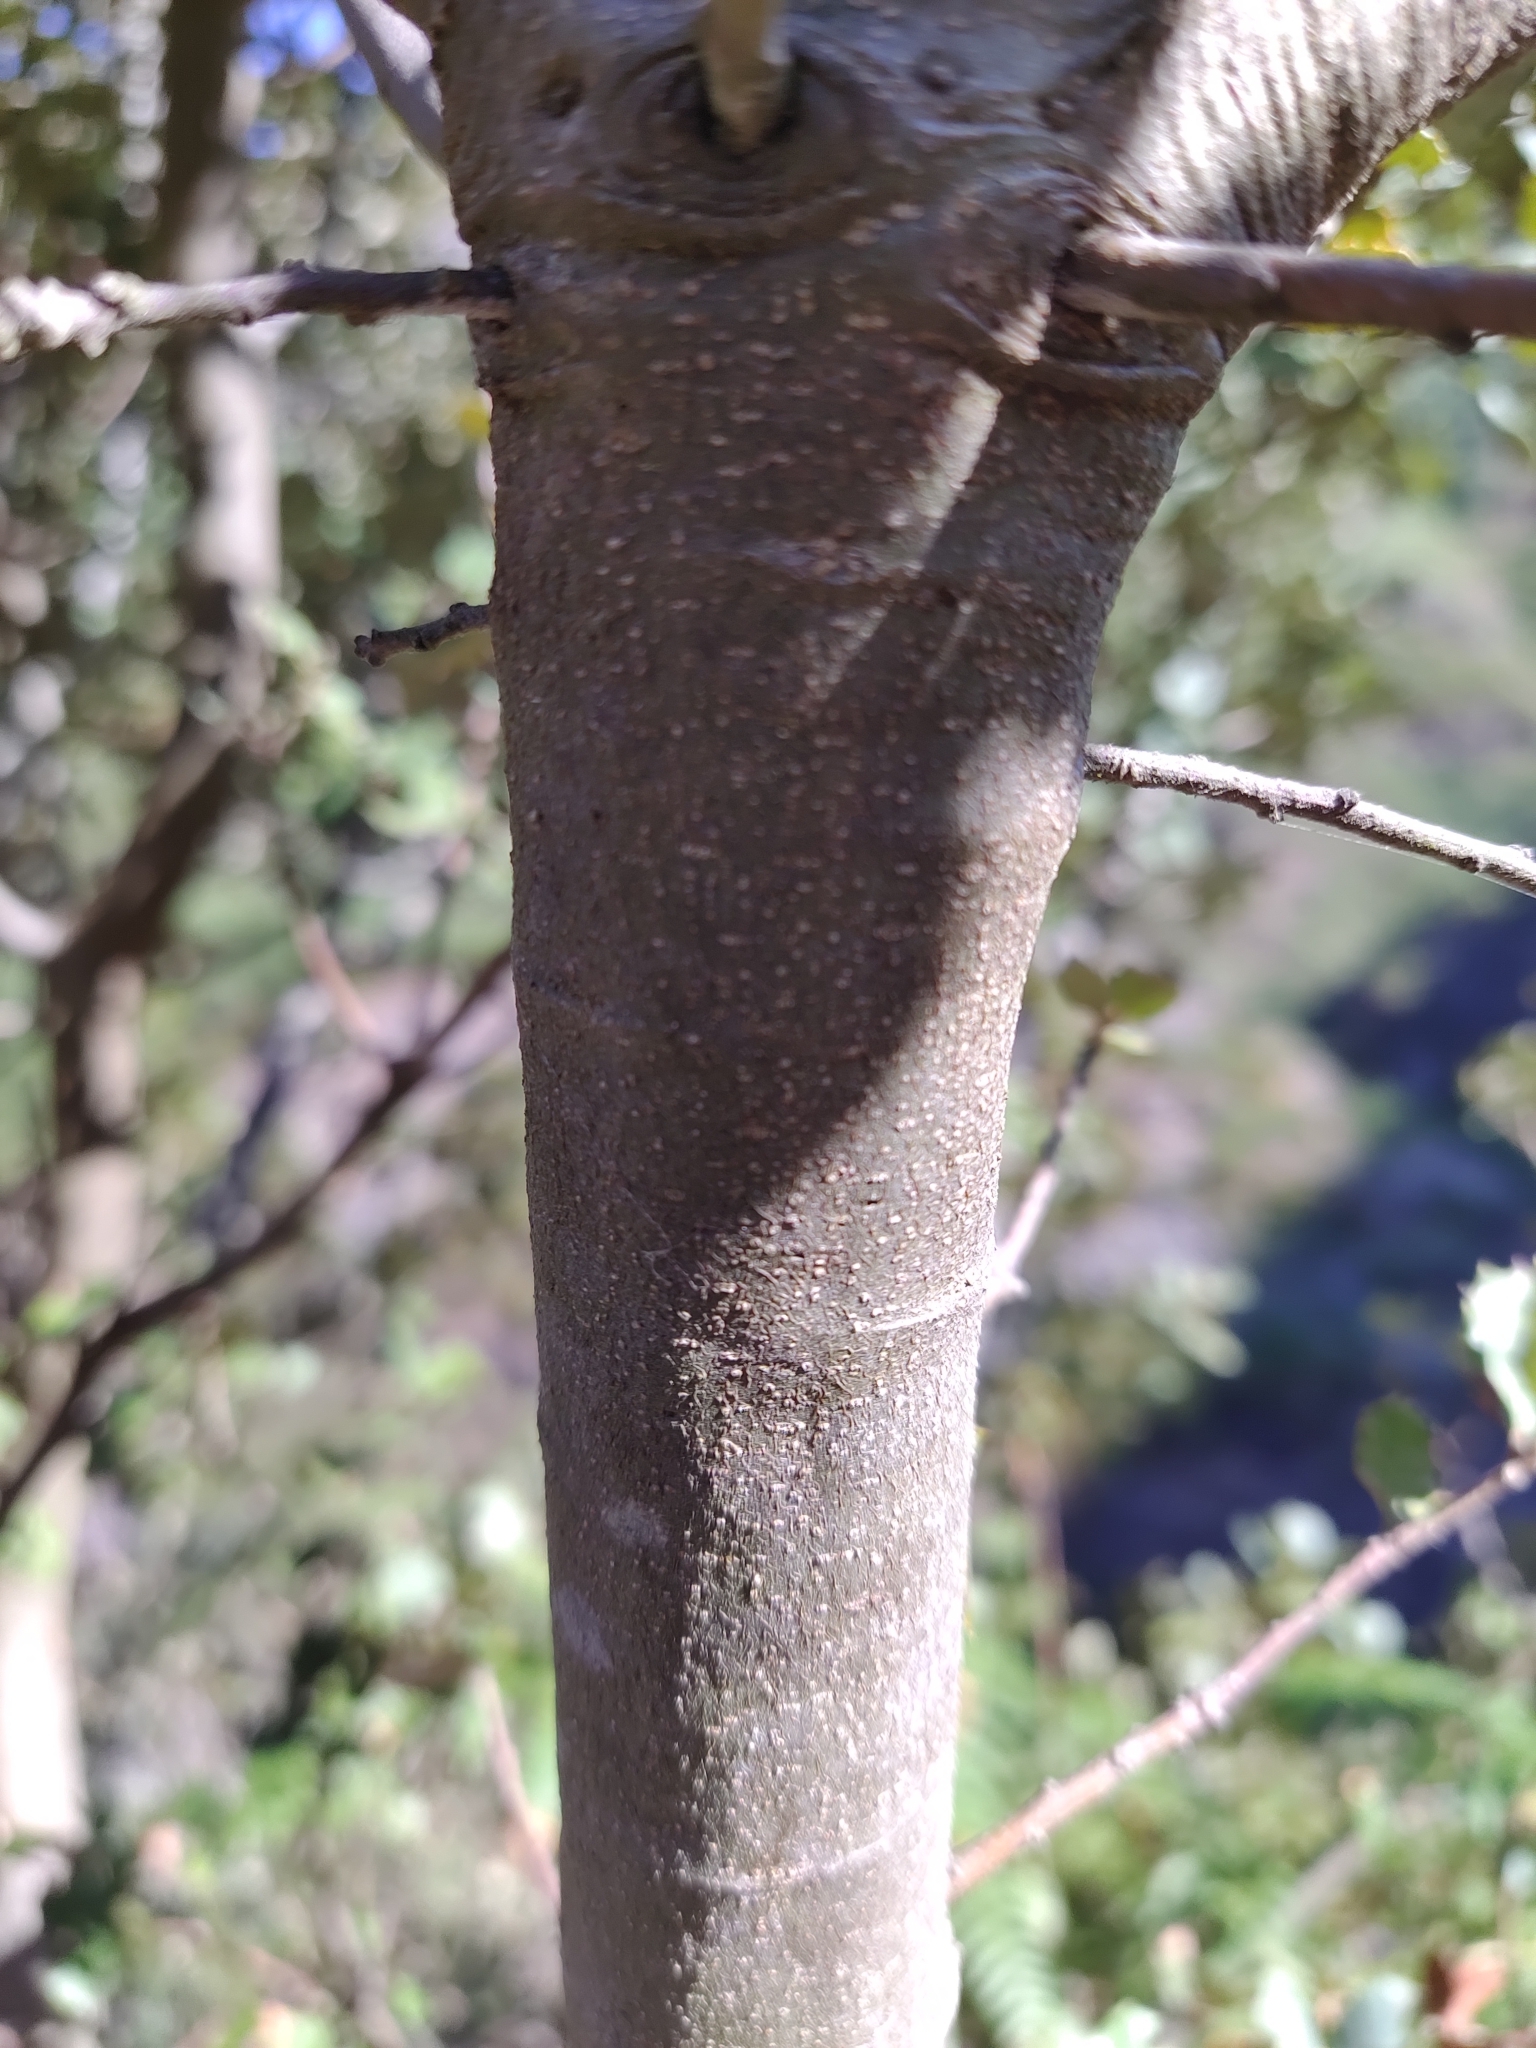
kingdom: Plantae
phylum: Tracheophyta
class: Magnoliopsida
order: Fagales
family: Fagaceae
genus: Quercus
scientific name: Quercus rotundifolia
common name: Holm oak
